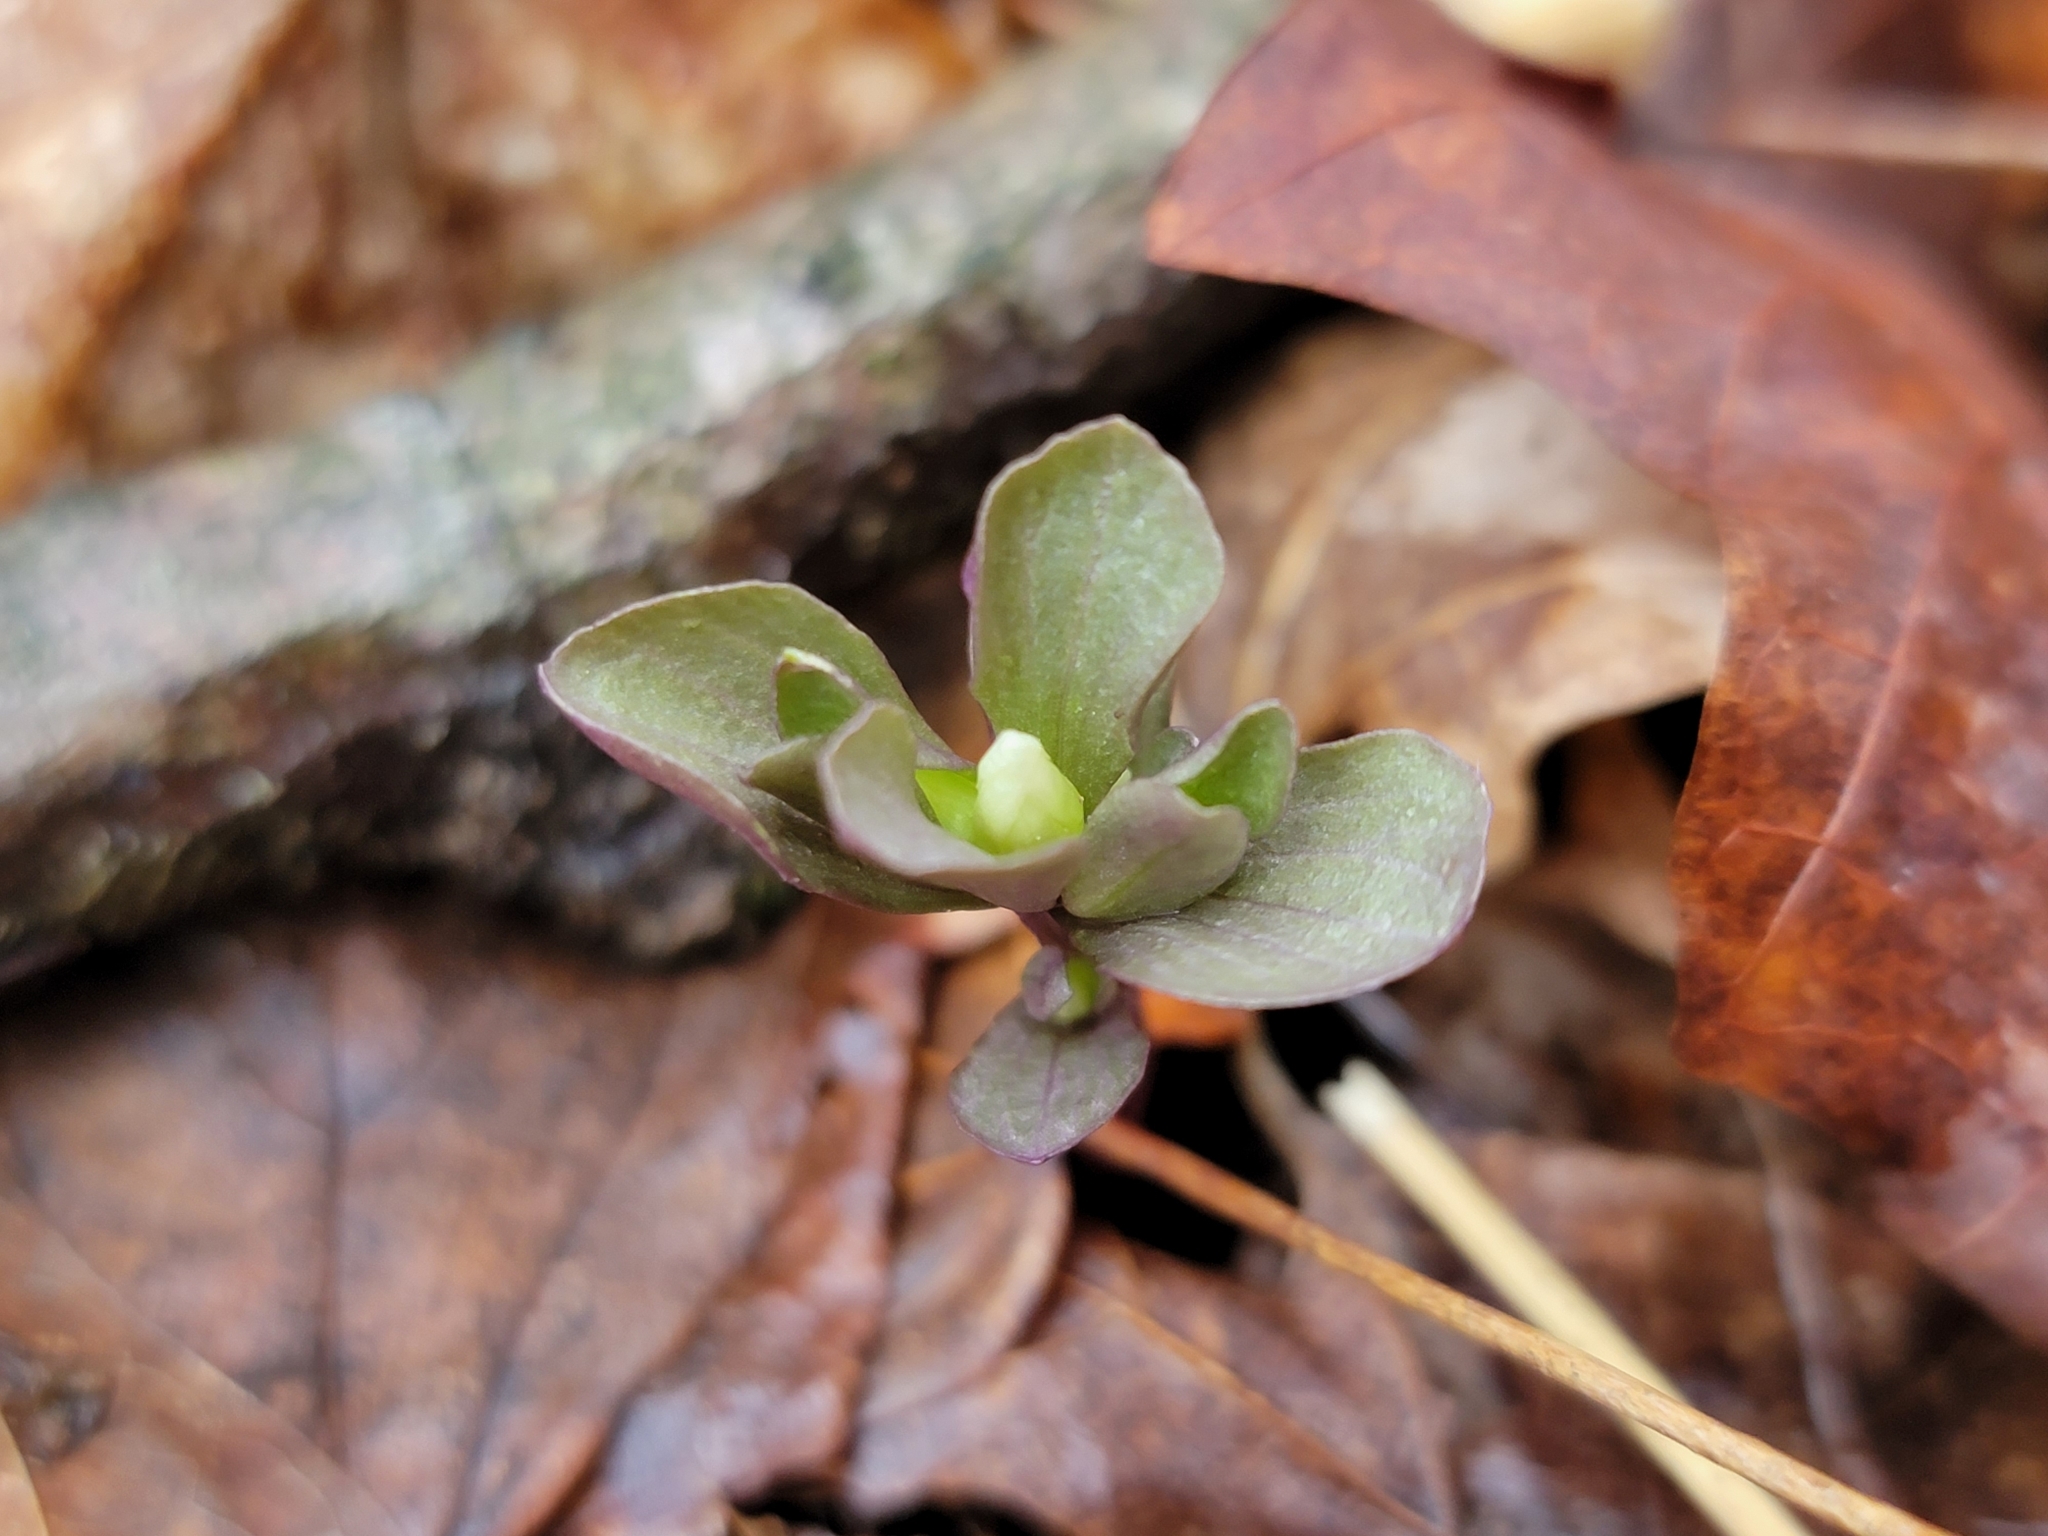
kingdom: Plantae
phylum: Tracheophyta
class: Magnoliopsida
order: Gentianales
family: Gentianaceae
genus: Obolaria
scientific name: Obolaria virginica
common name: Pennywort
